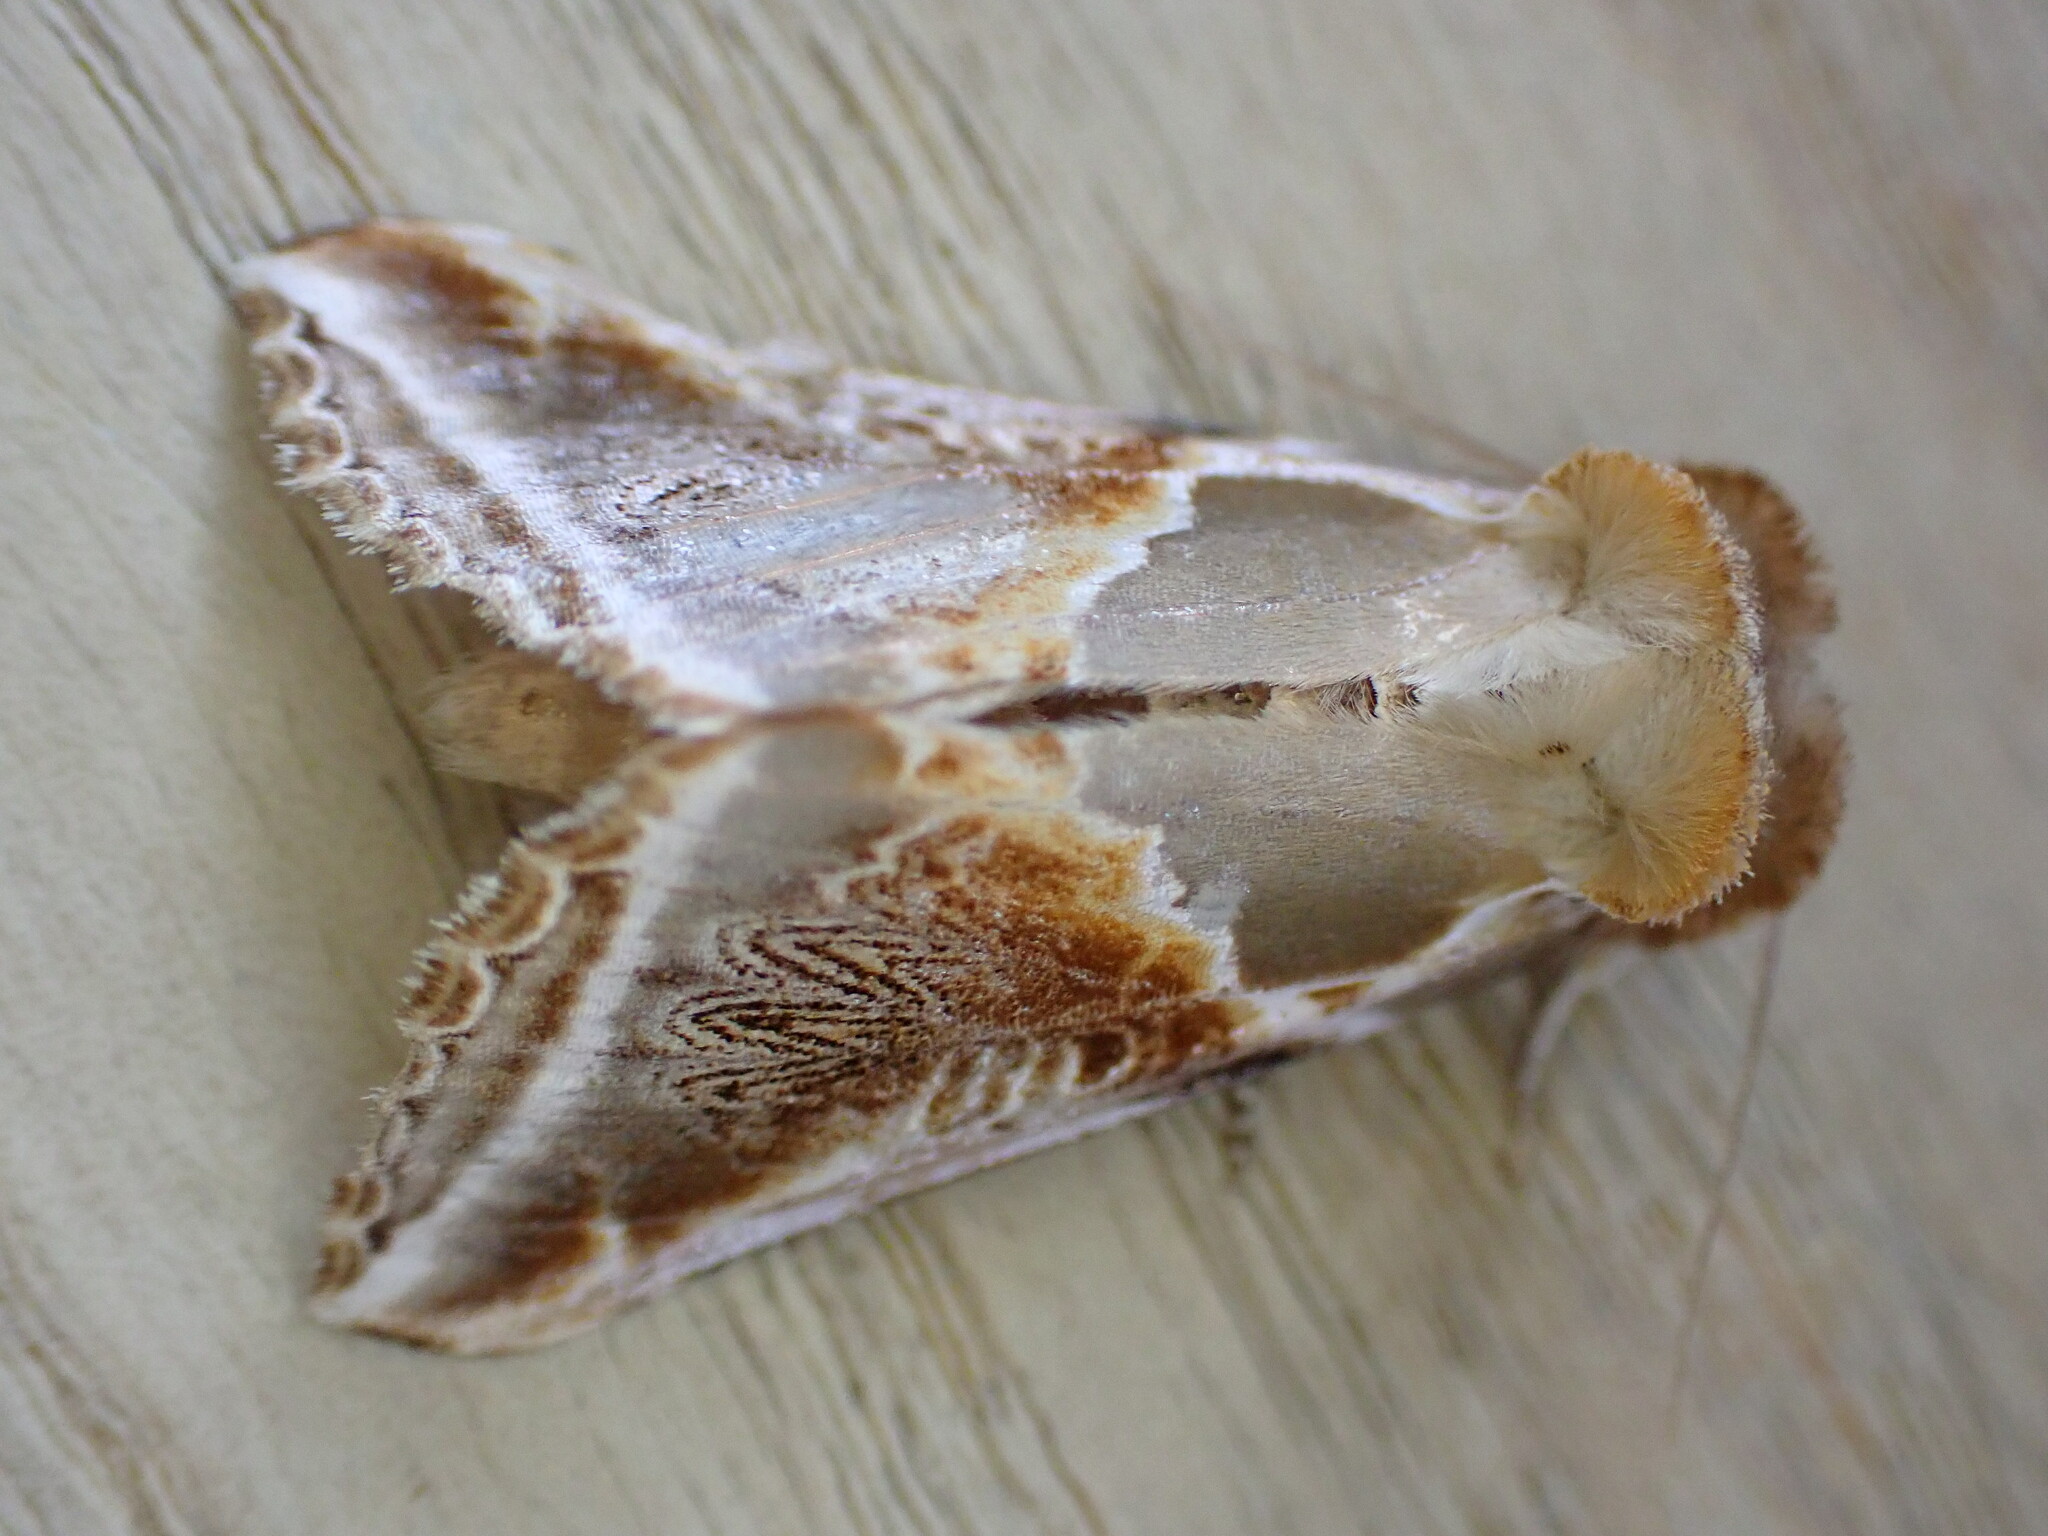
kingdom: Animalia
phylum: Arthropoda
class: Insecta
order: Lepidoptera
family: Drepanidae
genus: Habrosyne
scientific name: Habrosyne pyritoides
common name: Buff arches
